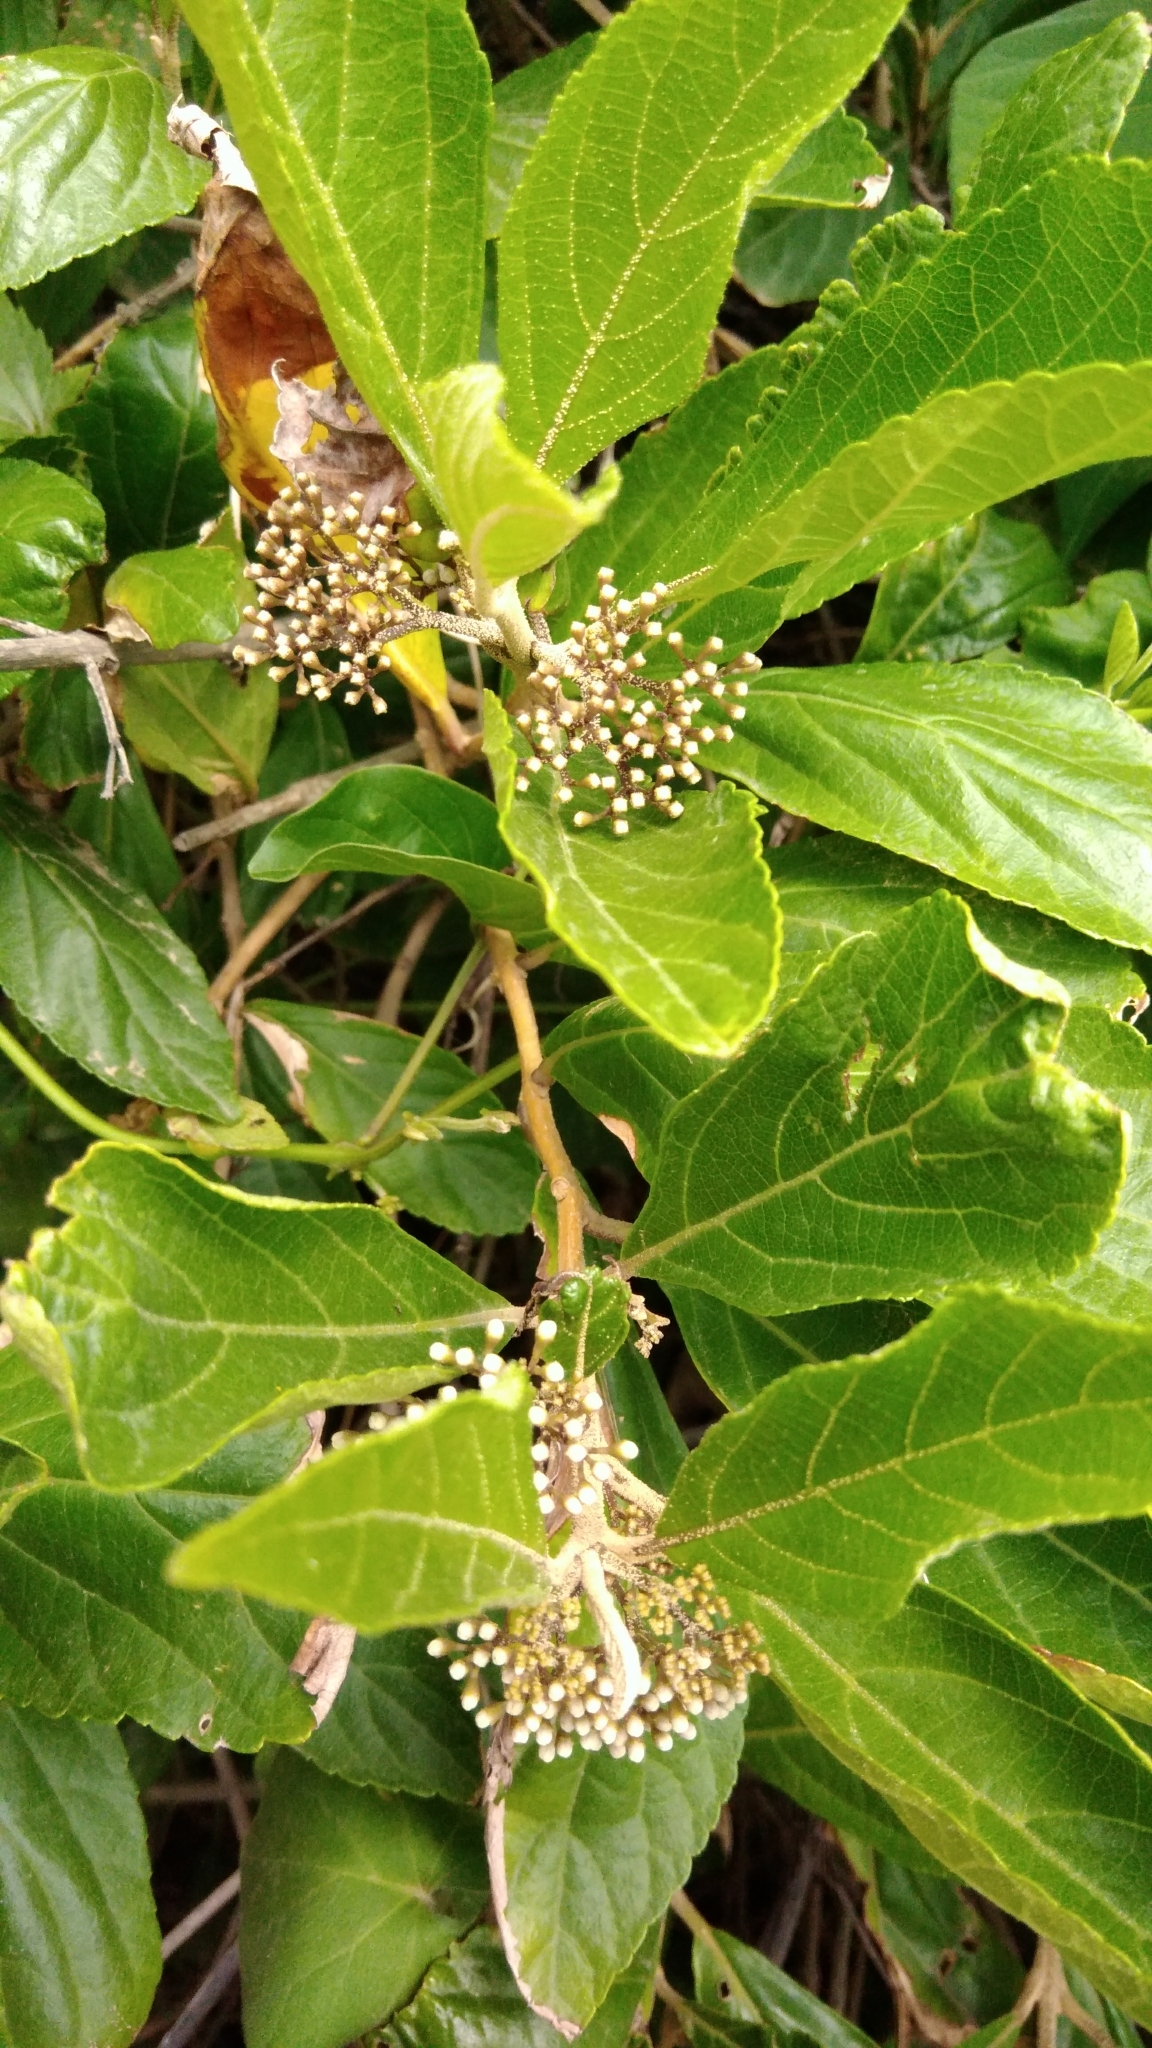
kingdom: Plantae
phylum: Tracheophyta
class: Magnoliopsida
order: Lamiales
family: Lamiaceae
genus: Callicarpa
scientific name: Callicarpa japonica
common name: Japanese beauty-berry
